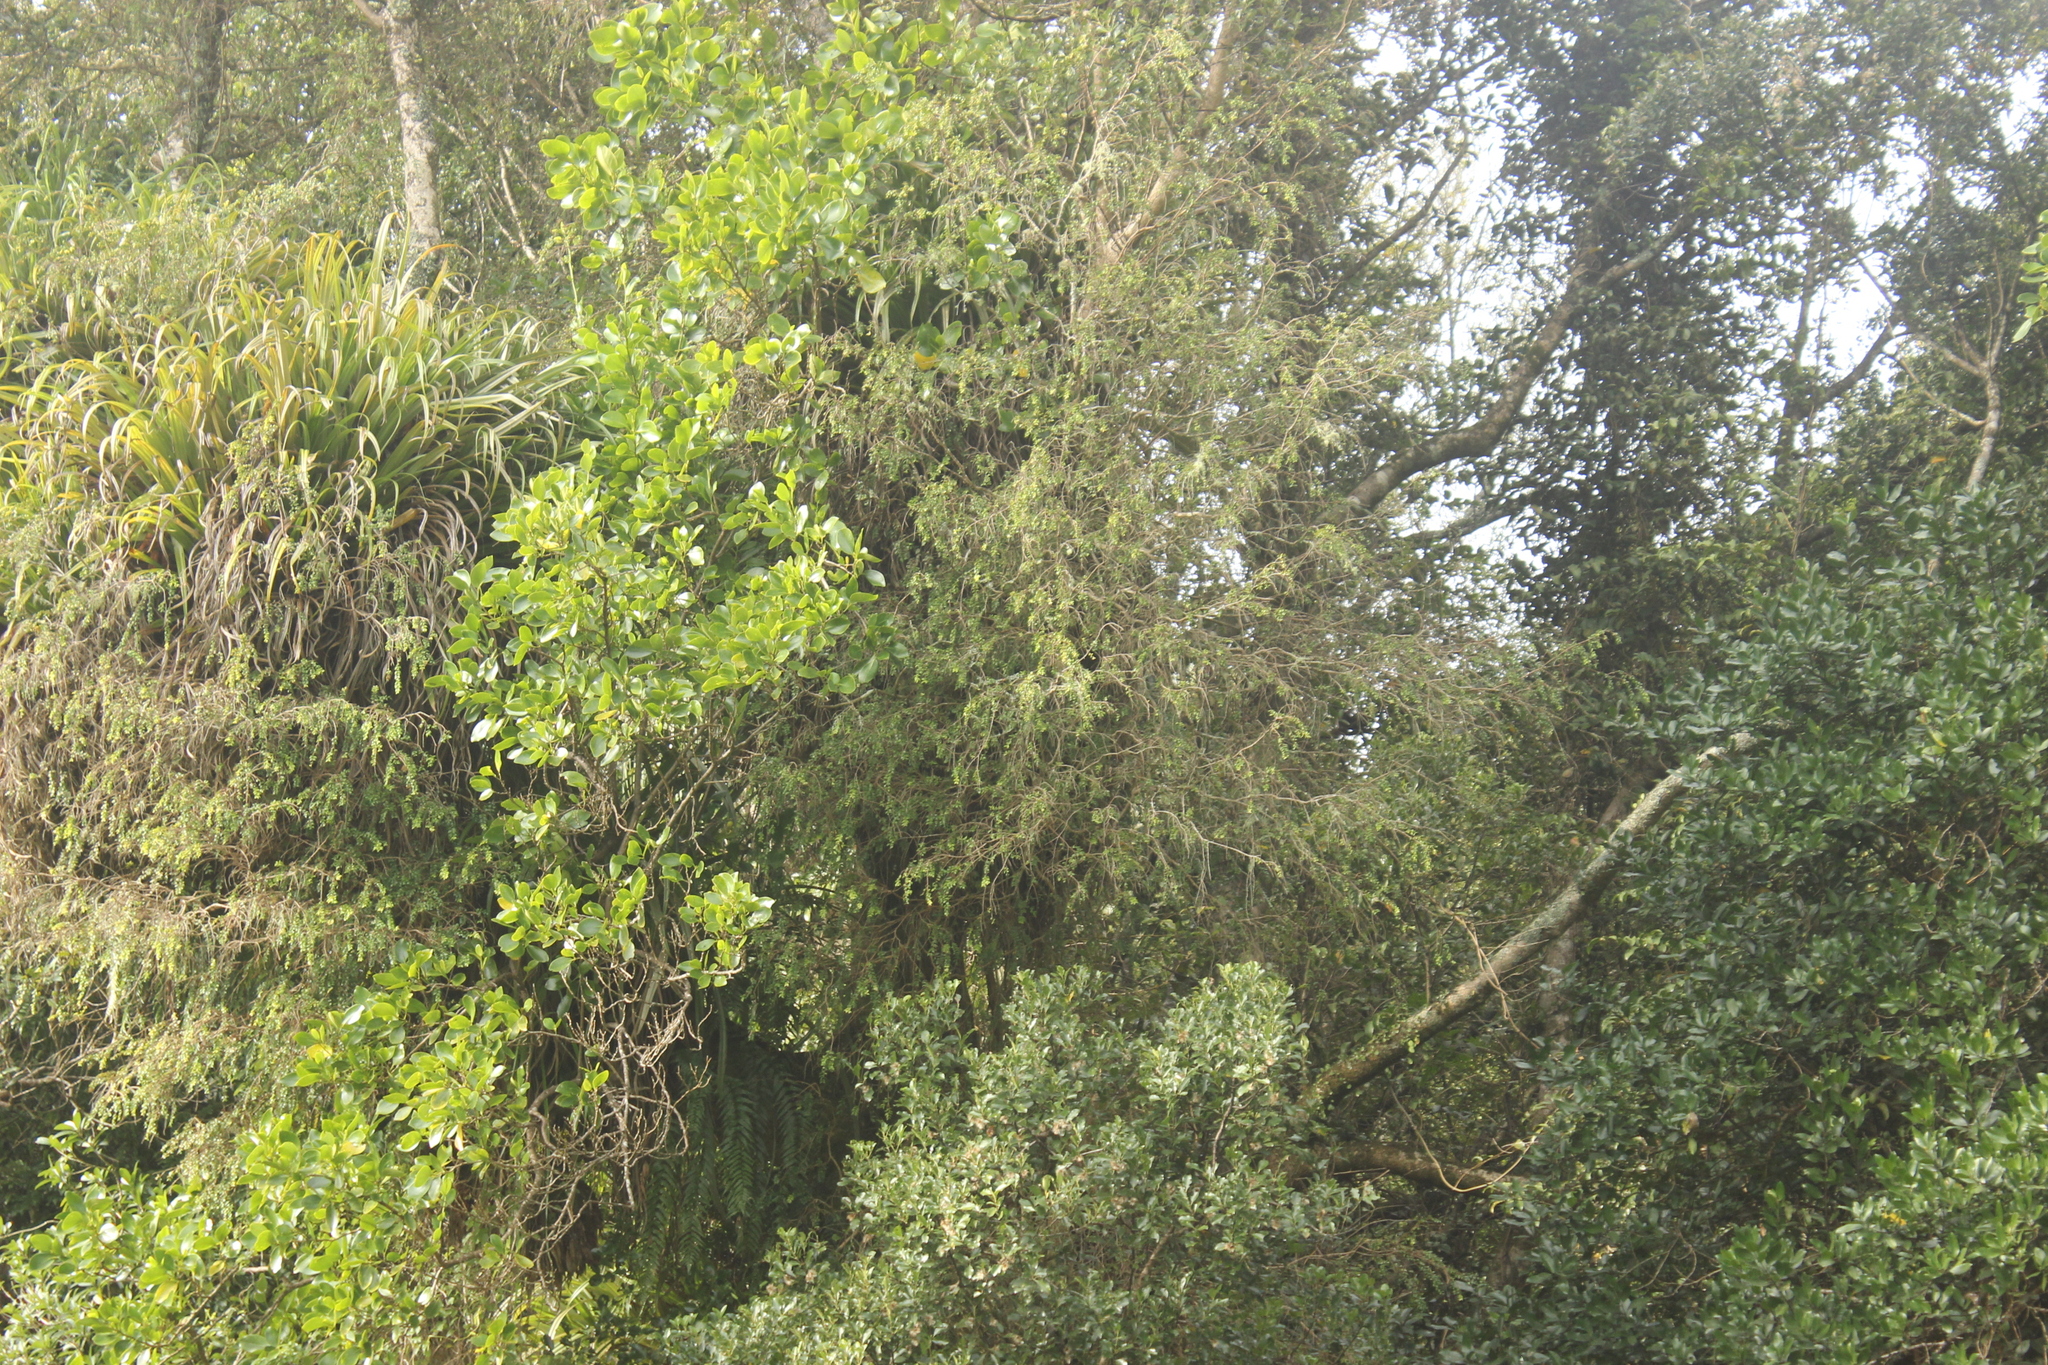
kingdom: Plantae
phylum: Tracheophyta
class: Magnoliopsida
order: Myrtales
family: Myrtaceae
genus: Metrosideros
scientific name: Metrosideros colensoi
